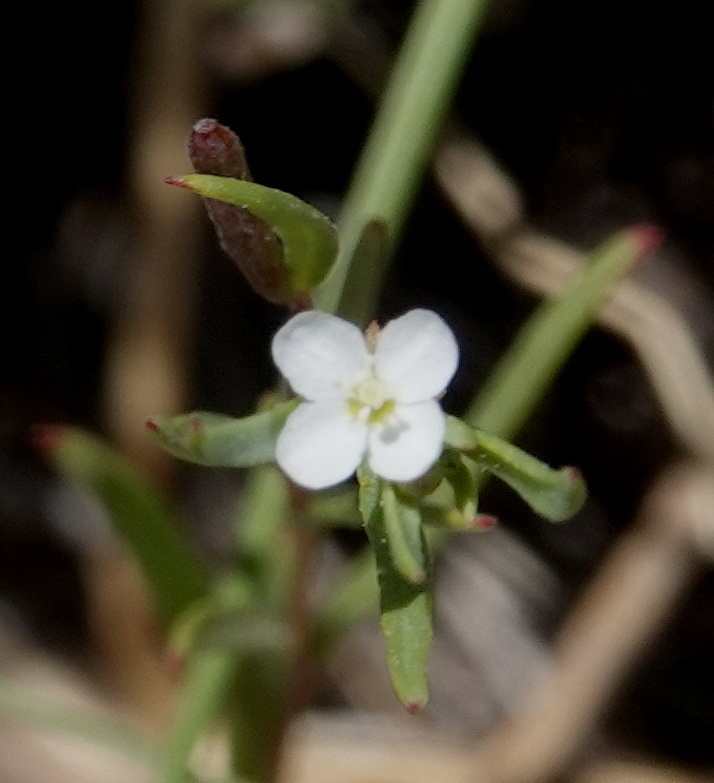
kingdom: Plantae
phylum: Tracheophyta
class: Magnoliopsida
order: Myrtales
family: Onagraceae
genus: Gayophytum
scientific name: Gayophytum diffusum
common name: Big-flowered groundsmoke
